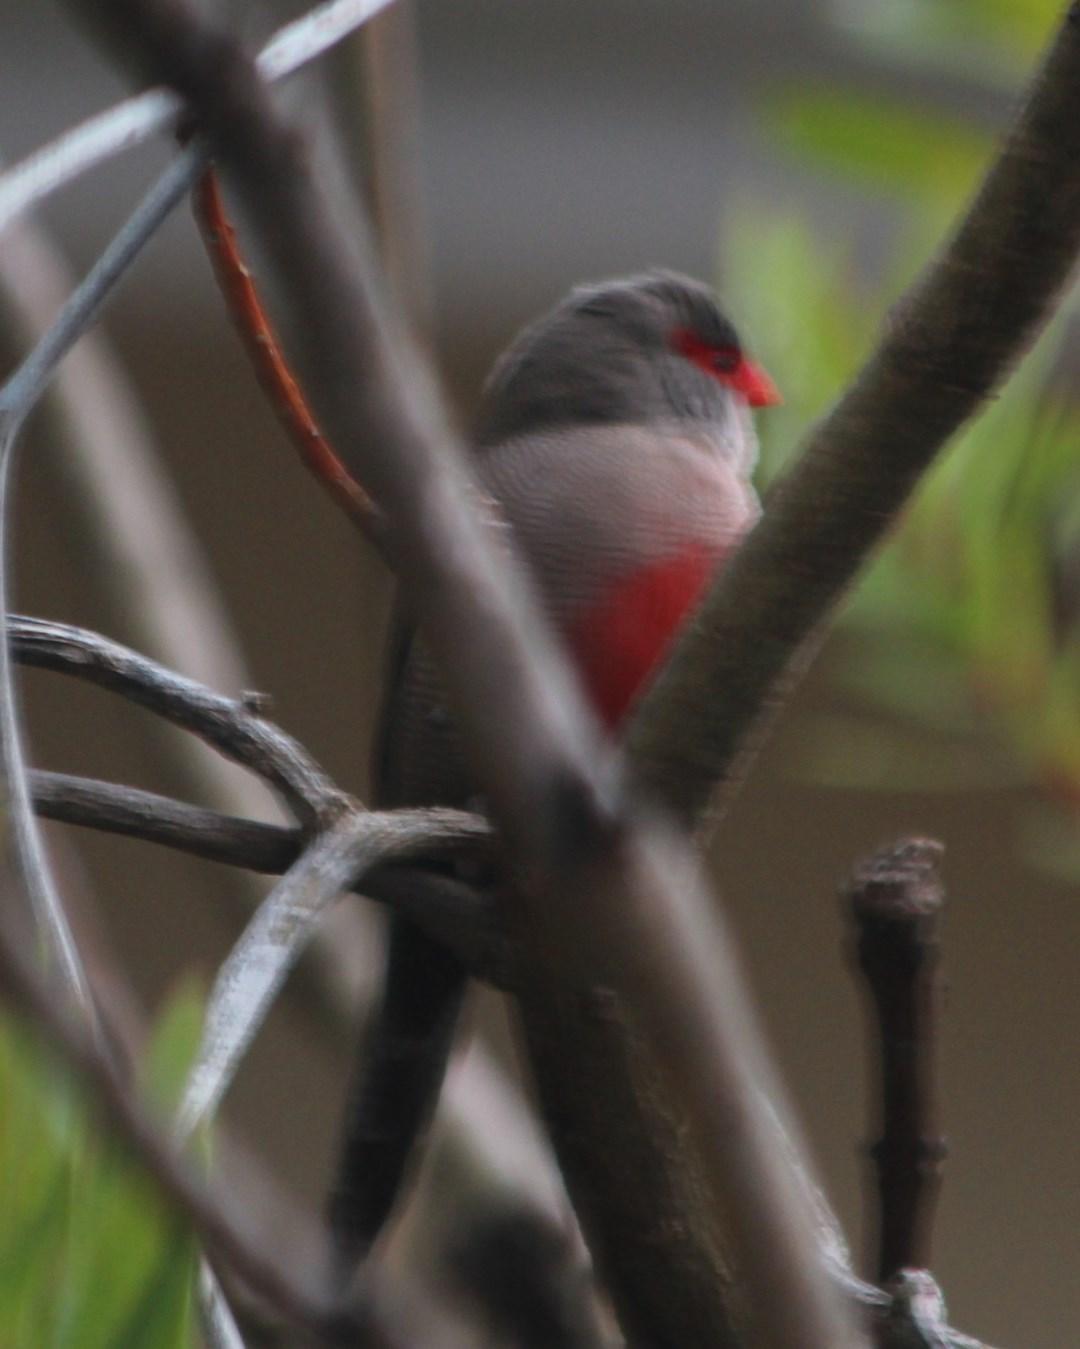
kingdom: Animalia
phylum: Chordata
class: Aves
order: Passeriformes
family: Estrildidae
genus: Estrilda
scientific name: Estrilda astrild
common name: Common waxbill
